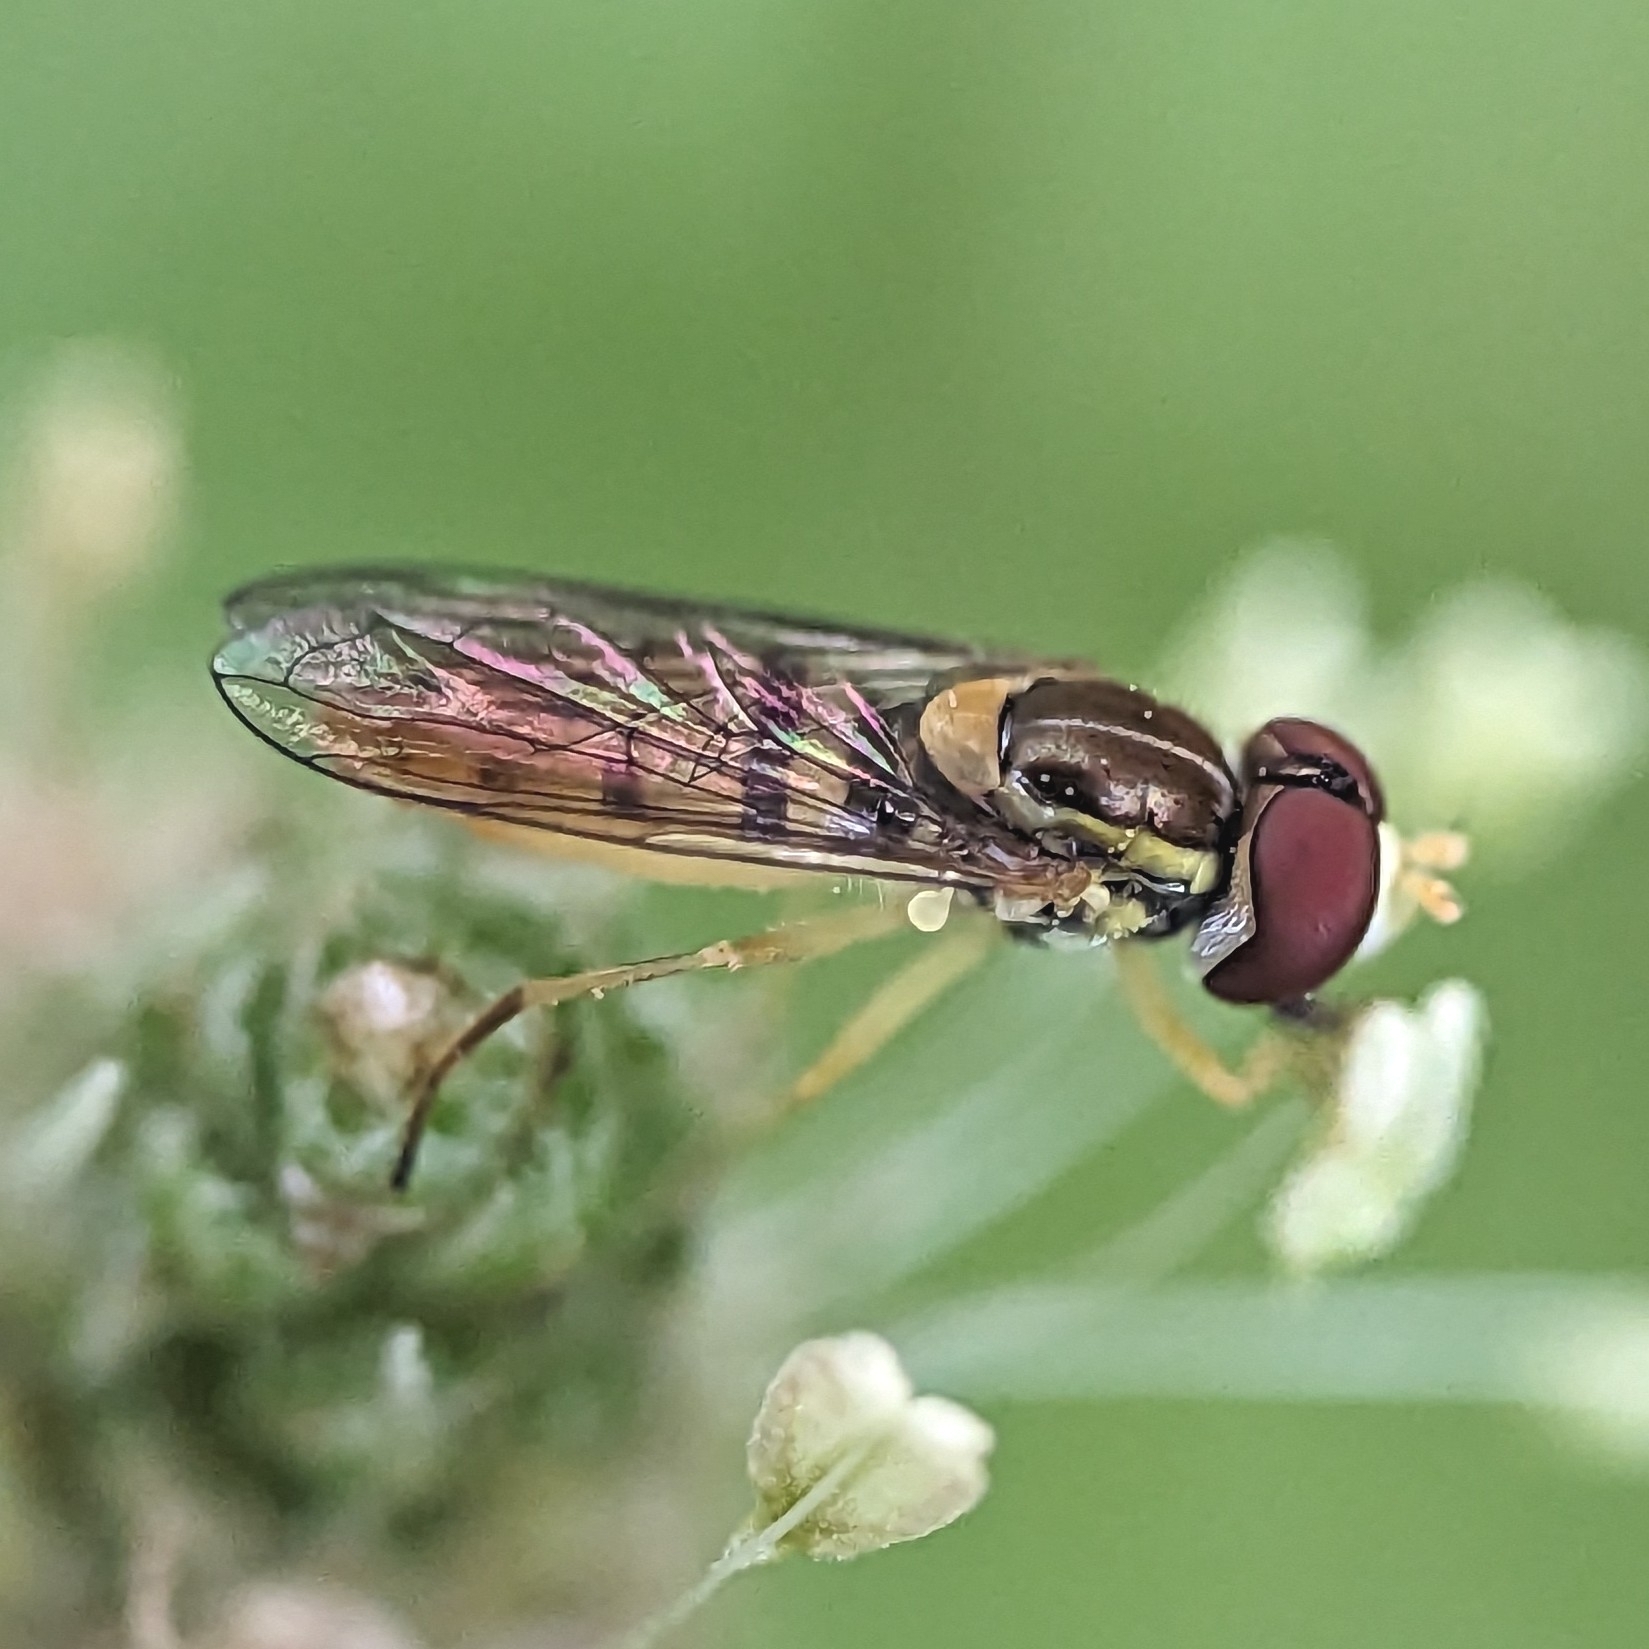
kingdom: Animalia
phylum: Arthropoda
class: Insecta
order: Diptera
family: Syrphidae
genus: Toxomerus
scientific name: Toxomerus marginatus
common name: Syrphid fly
